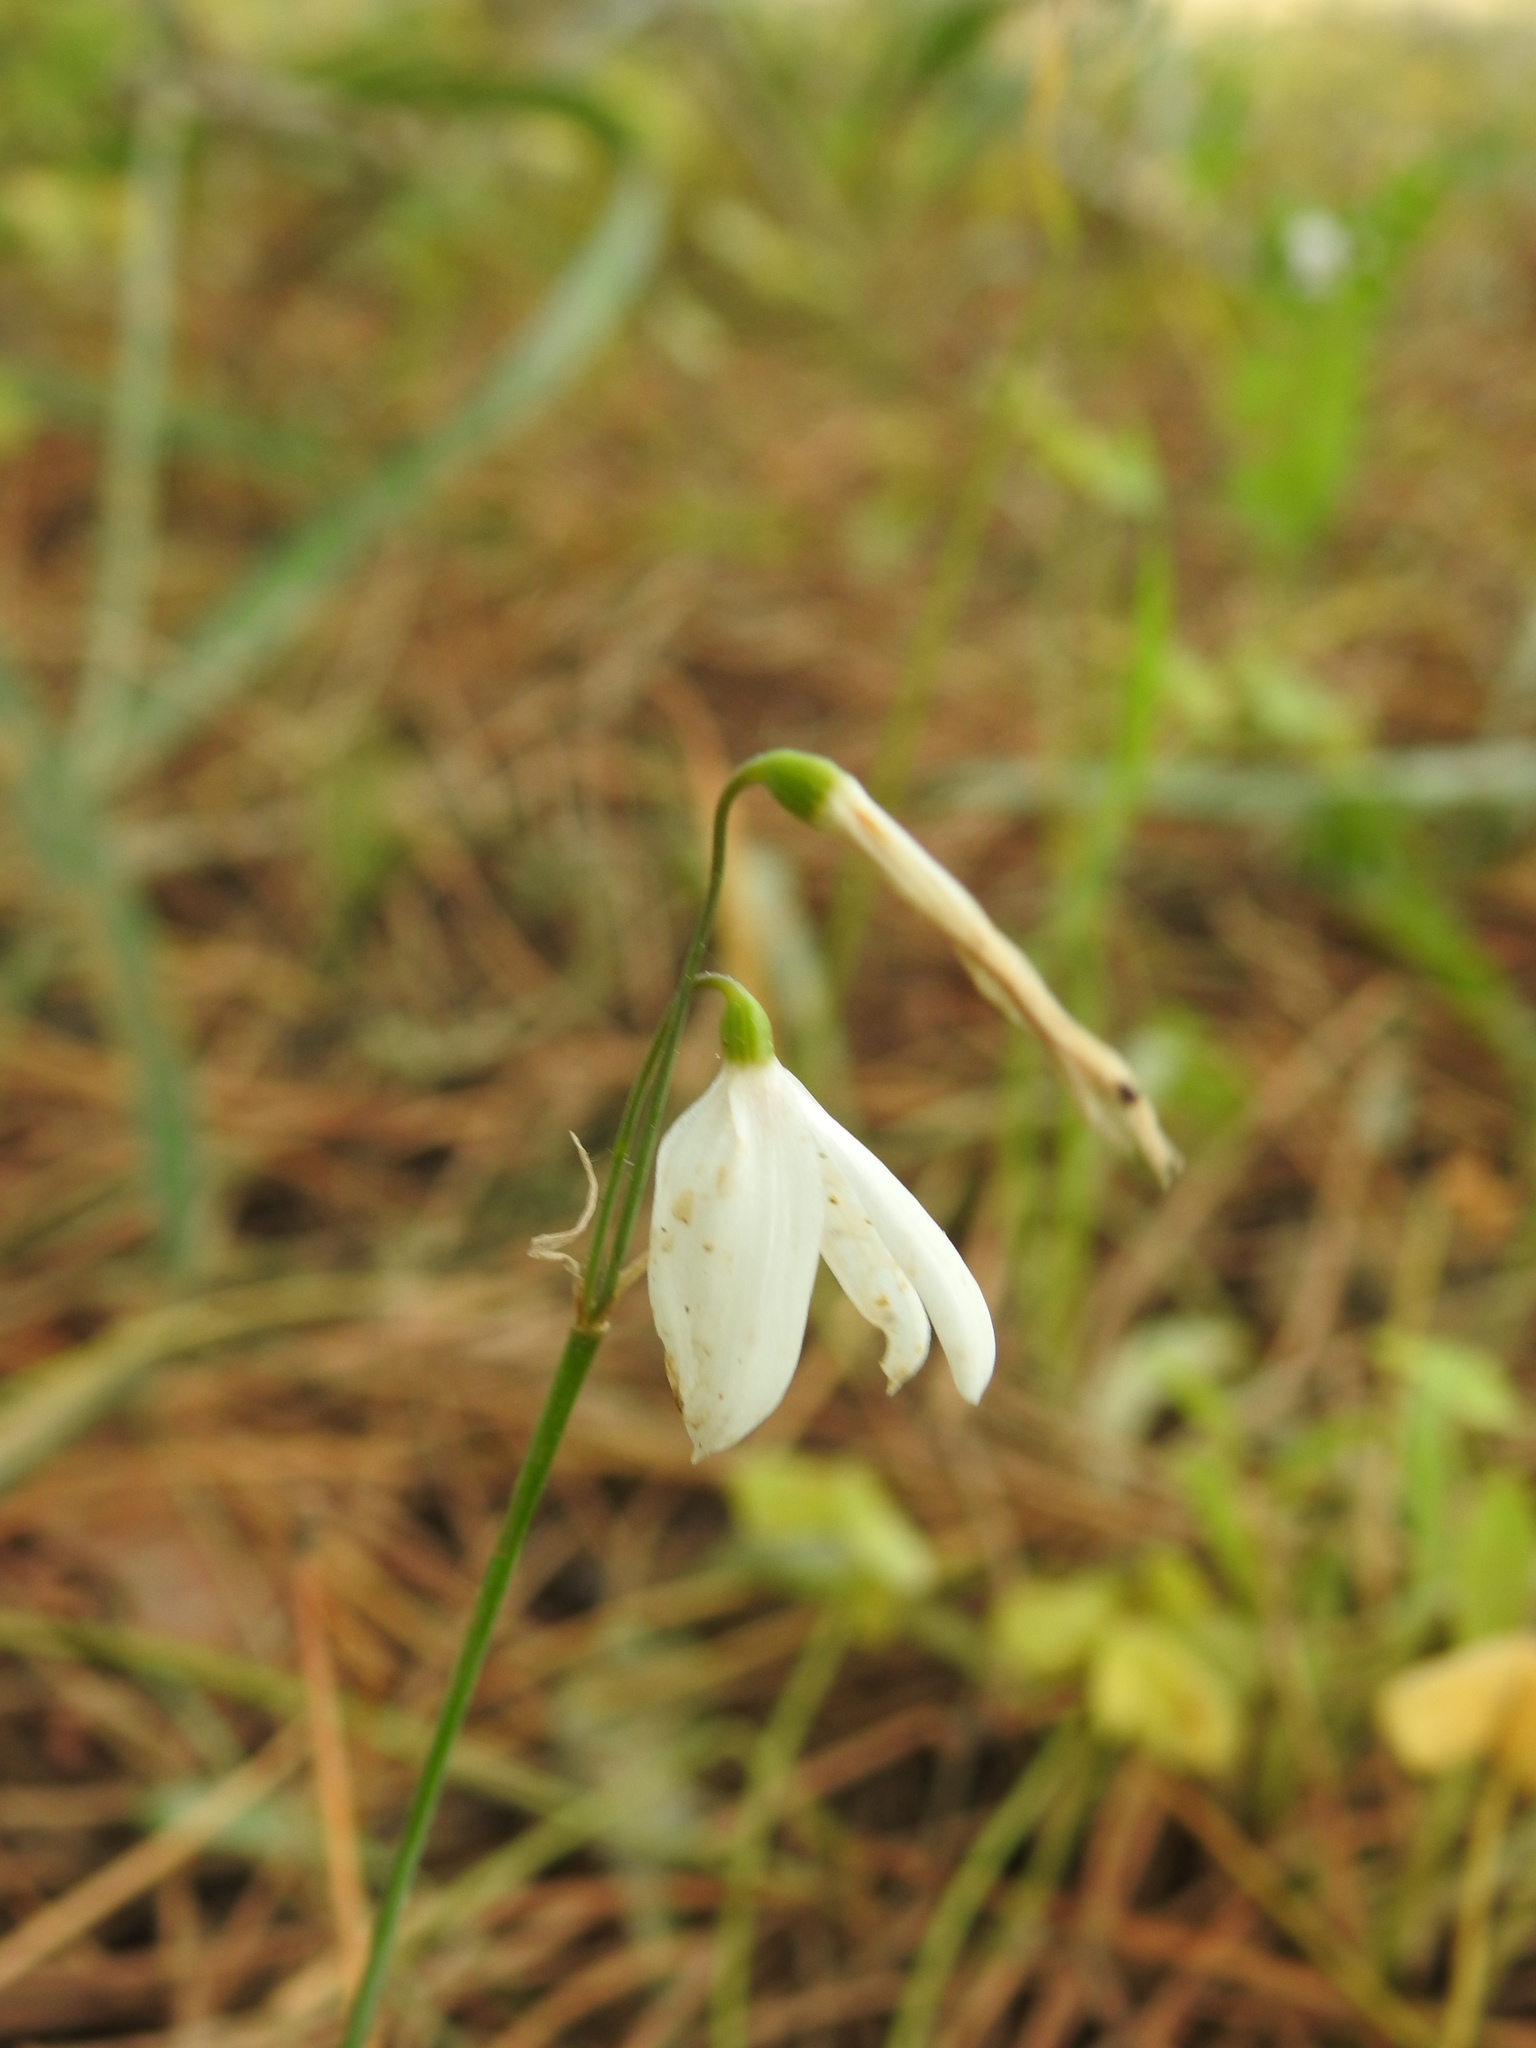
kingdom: Plantae
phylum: Tracheophyta
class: Liliopsida
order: Asparagales
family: Amaryllidaceae
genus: Acis
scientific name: Acis trichophylla
